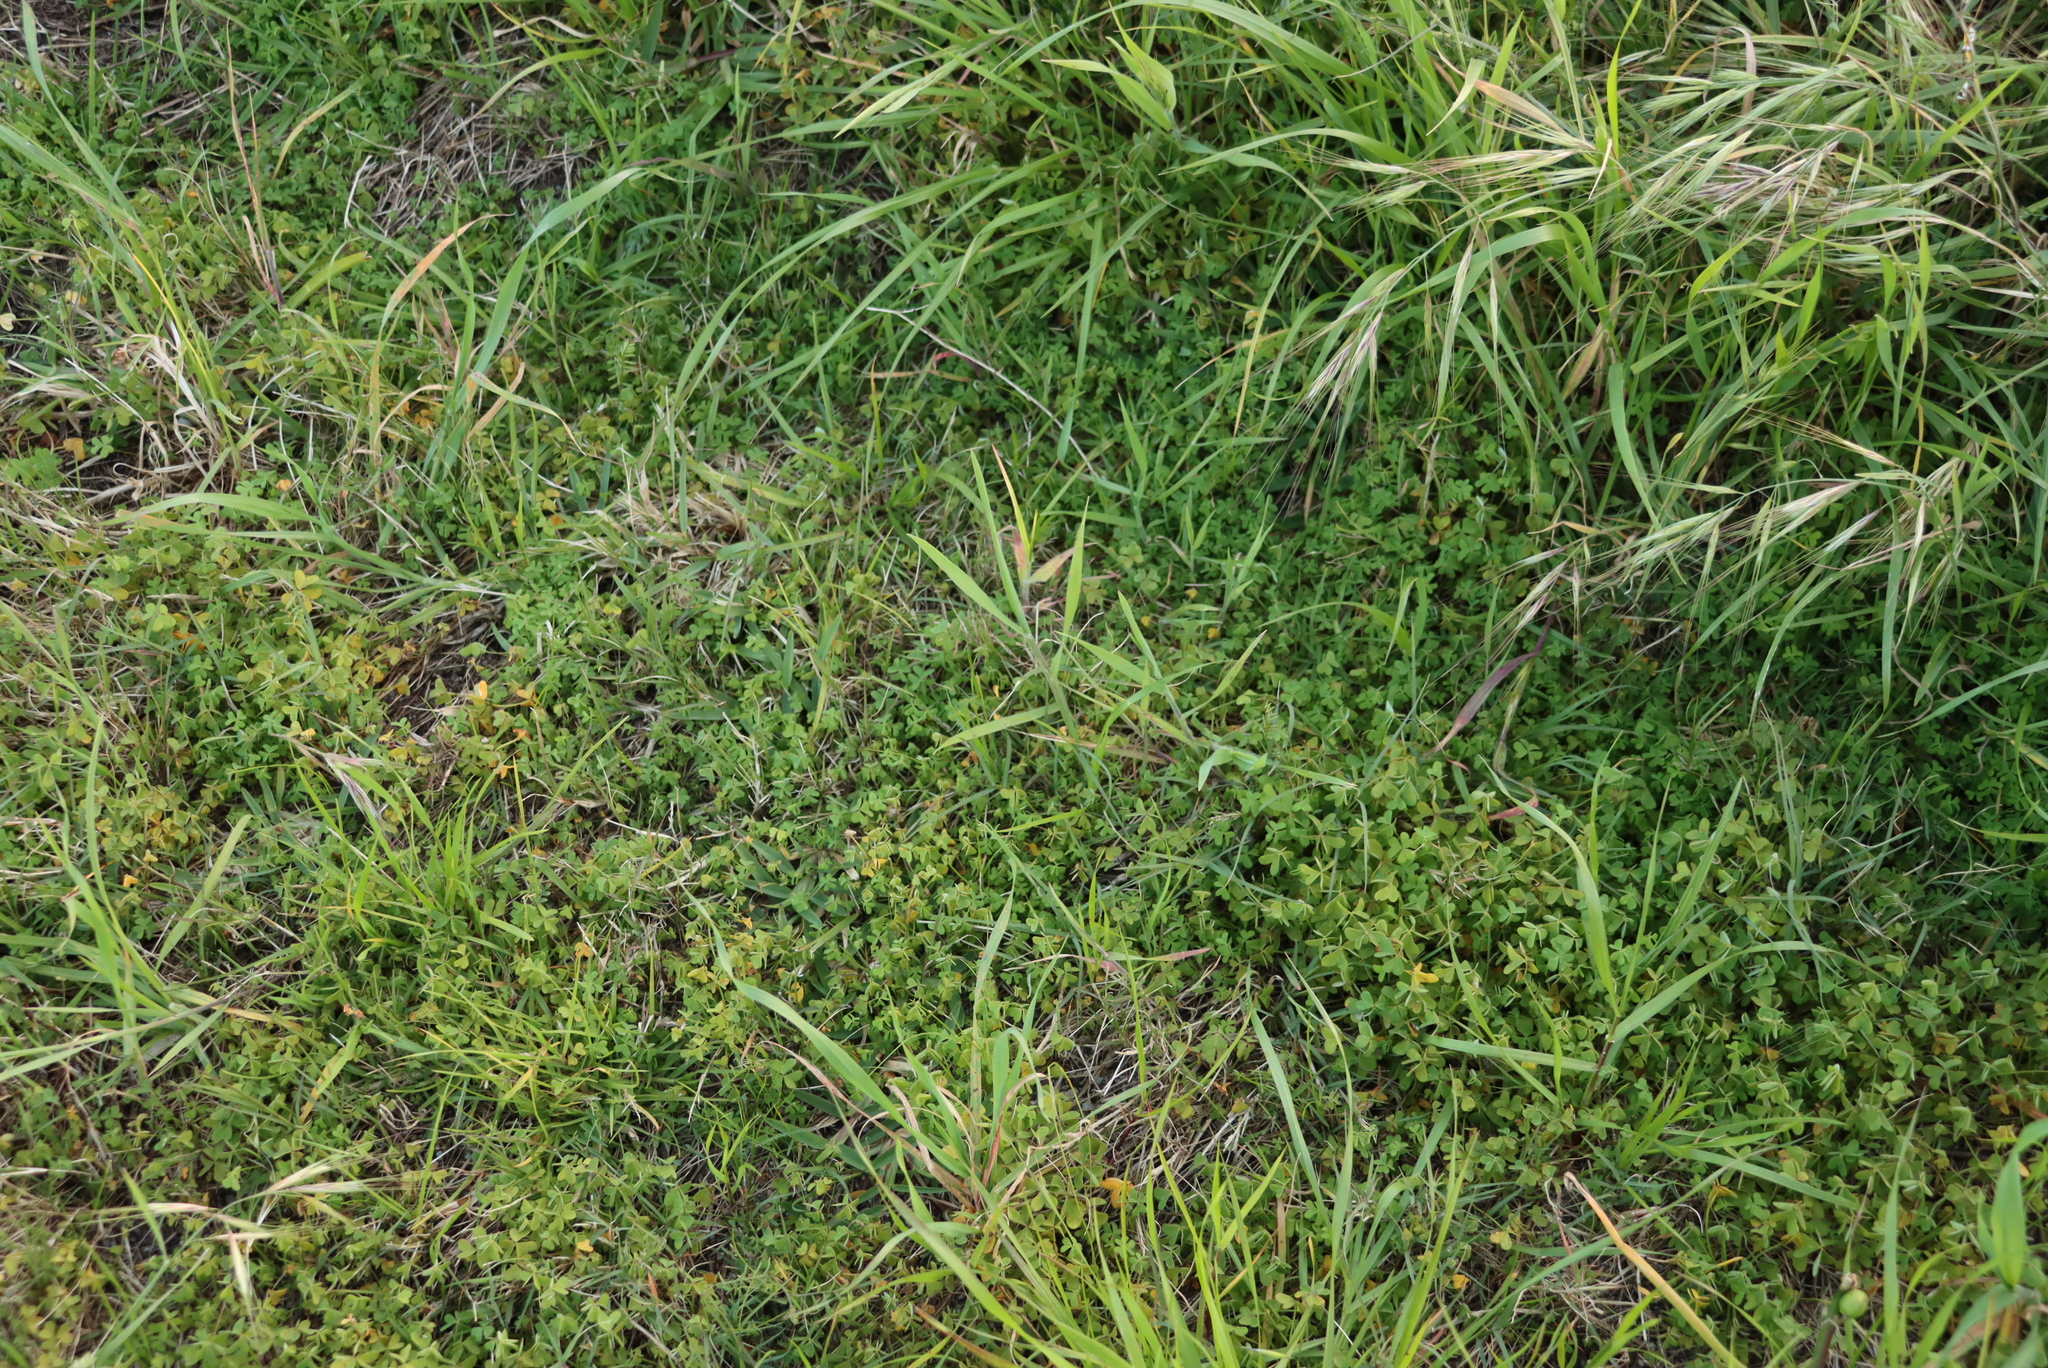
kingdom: Plantae
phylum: Tracheophyta
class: Magnoliopsida
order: Oxalidales
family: Oxalidaceae
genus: Oxalis
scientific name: Oxalis pes-caprae
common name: Bermuda-buttercup
